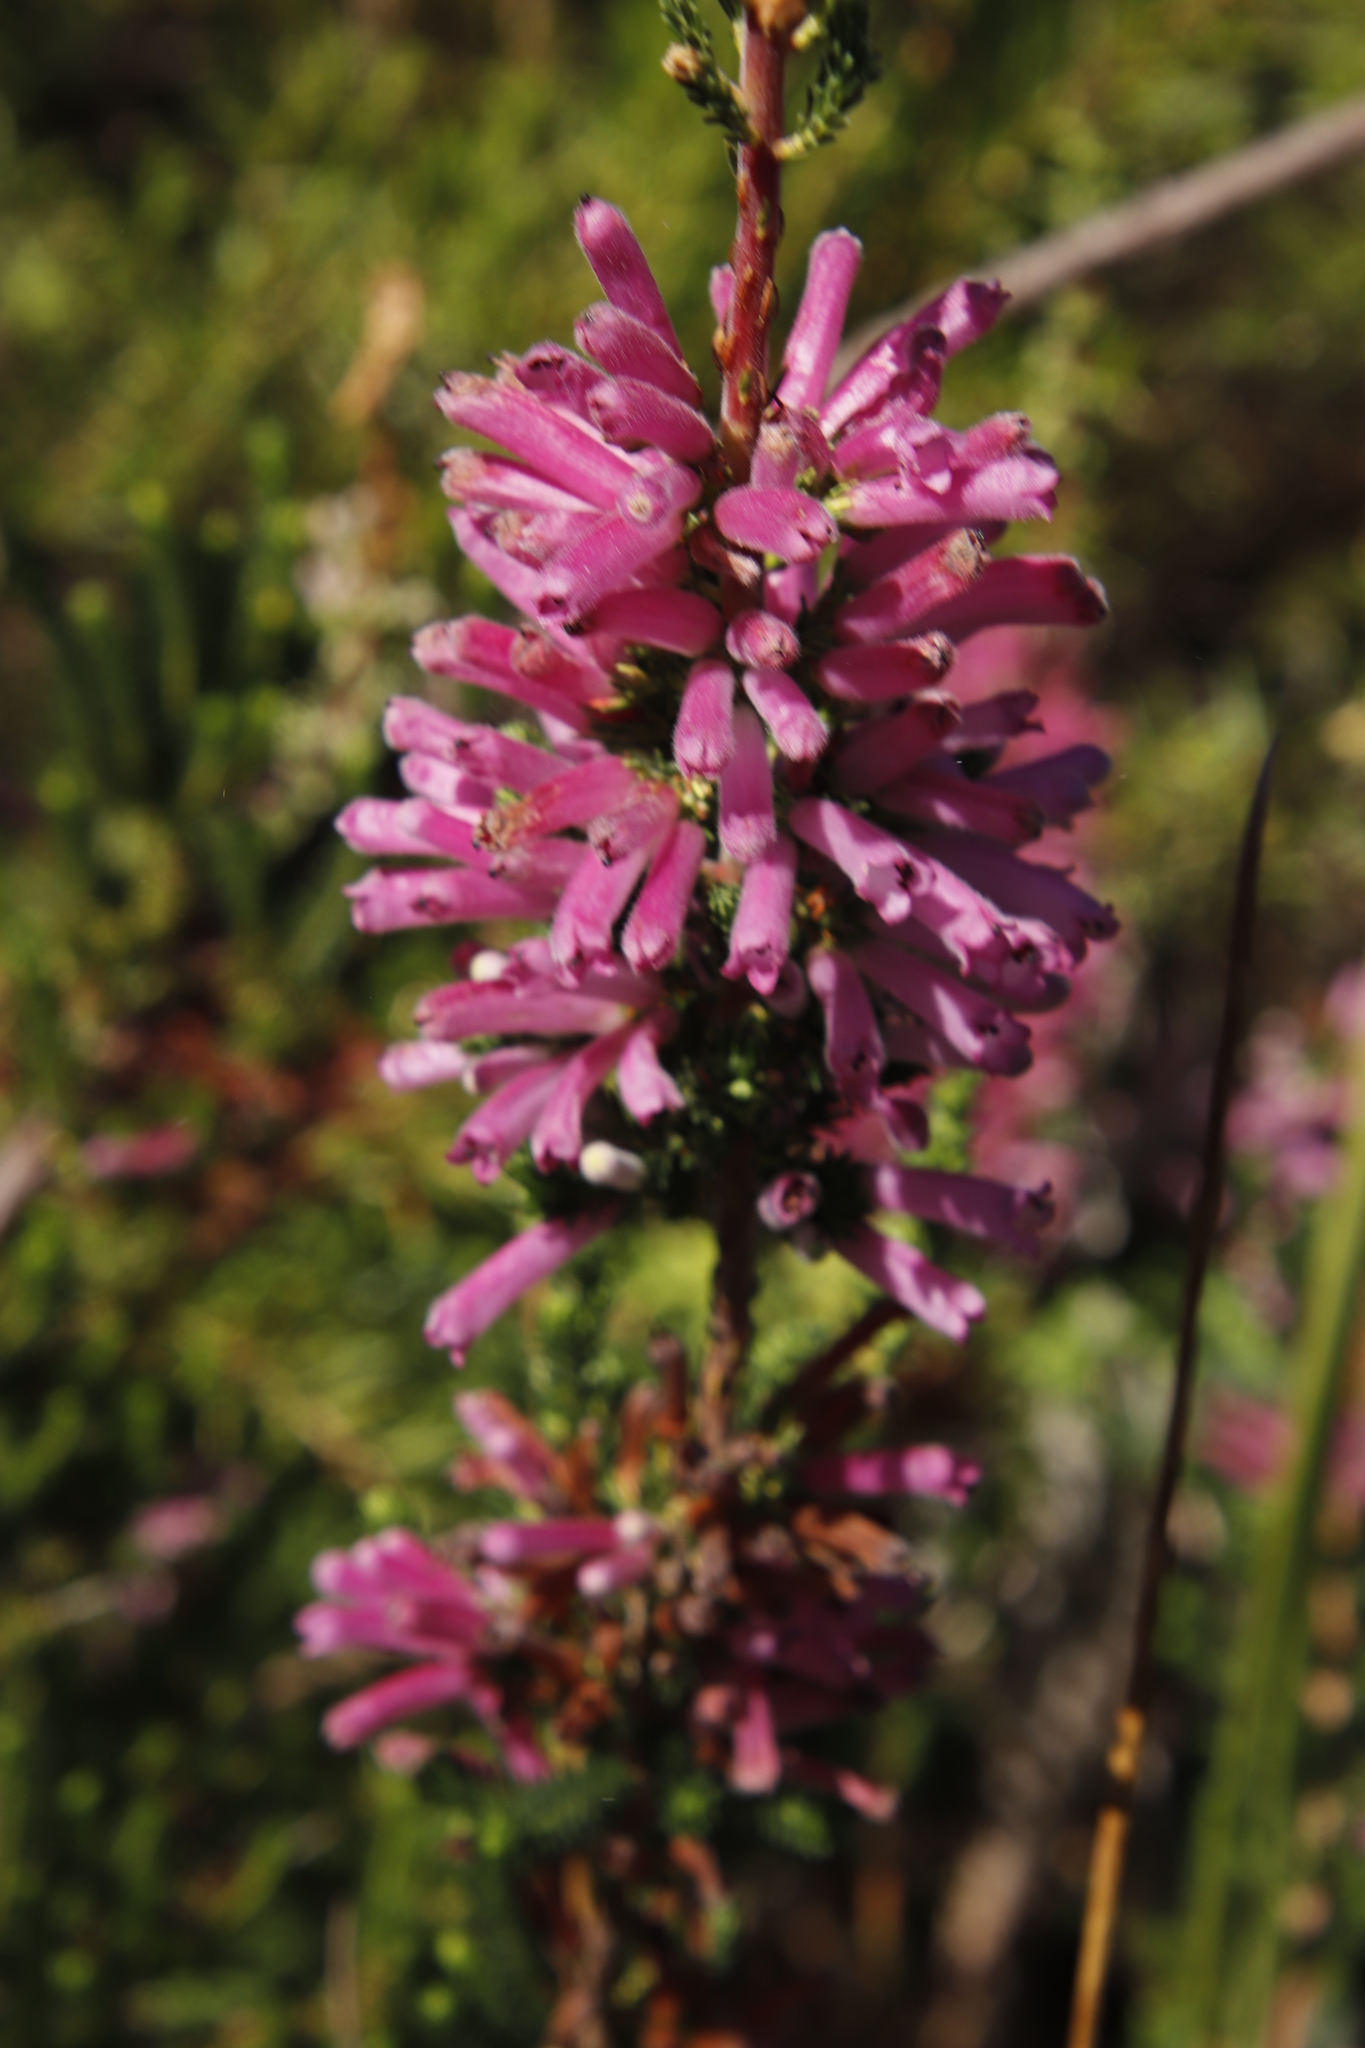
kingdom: Plantae
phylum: Tracheophyta
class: Magnoliopsida
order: Ericales
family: Ericaceae
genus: Erica
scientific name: Erica verticillata
